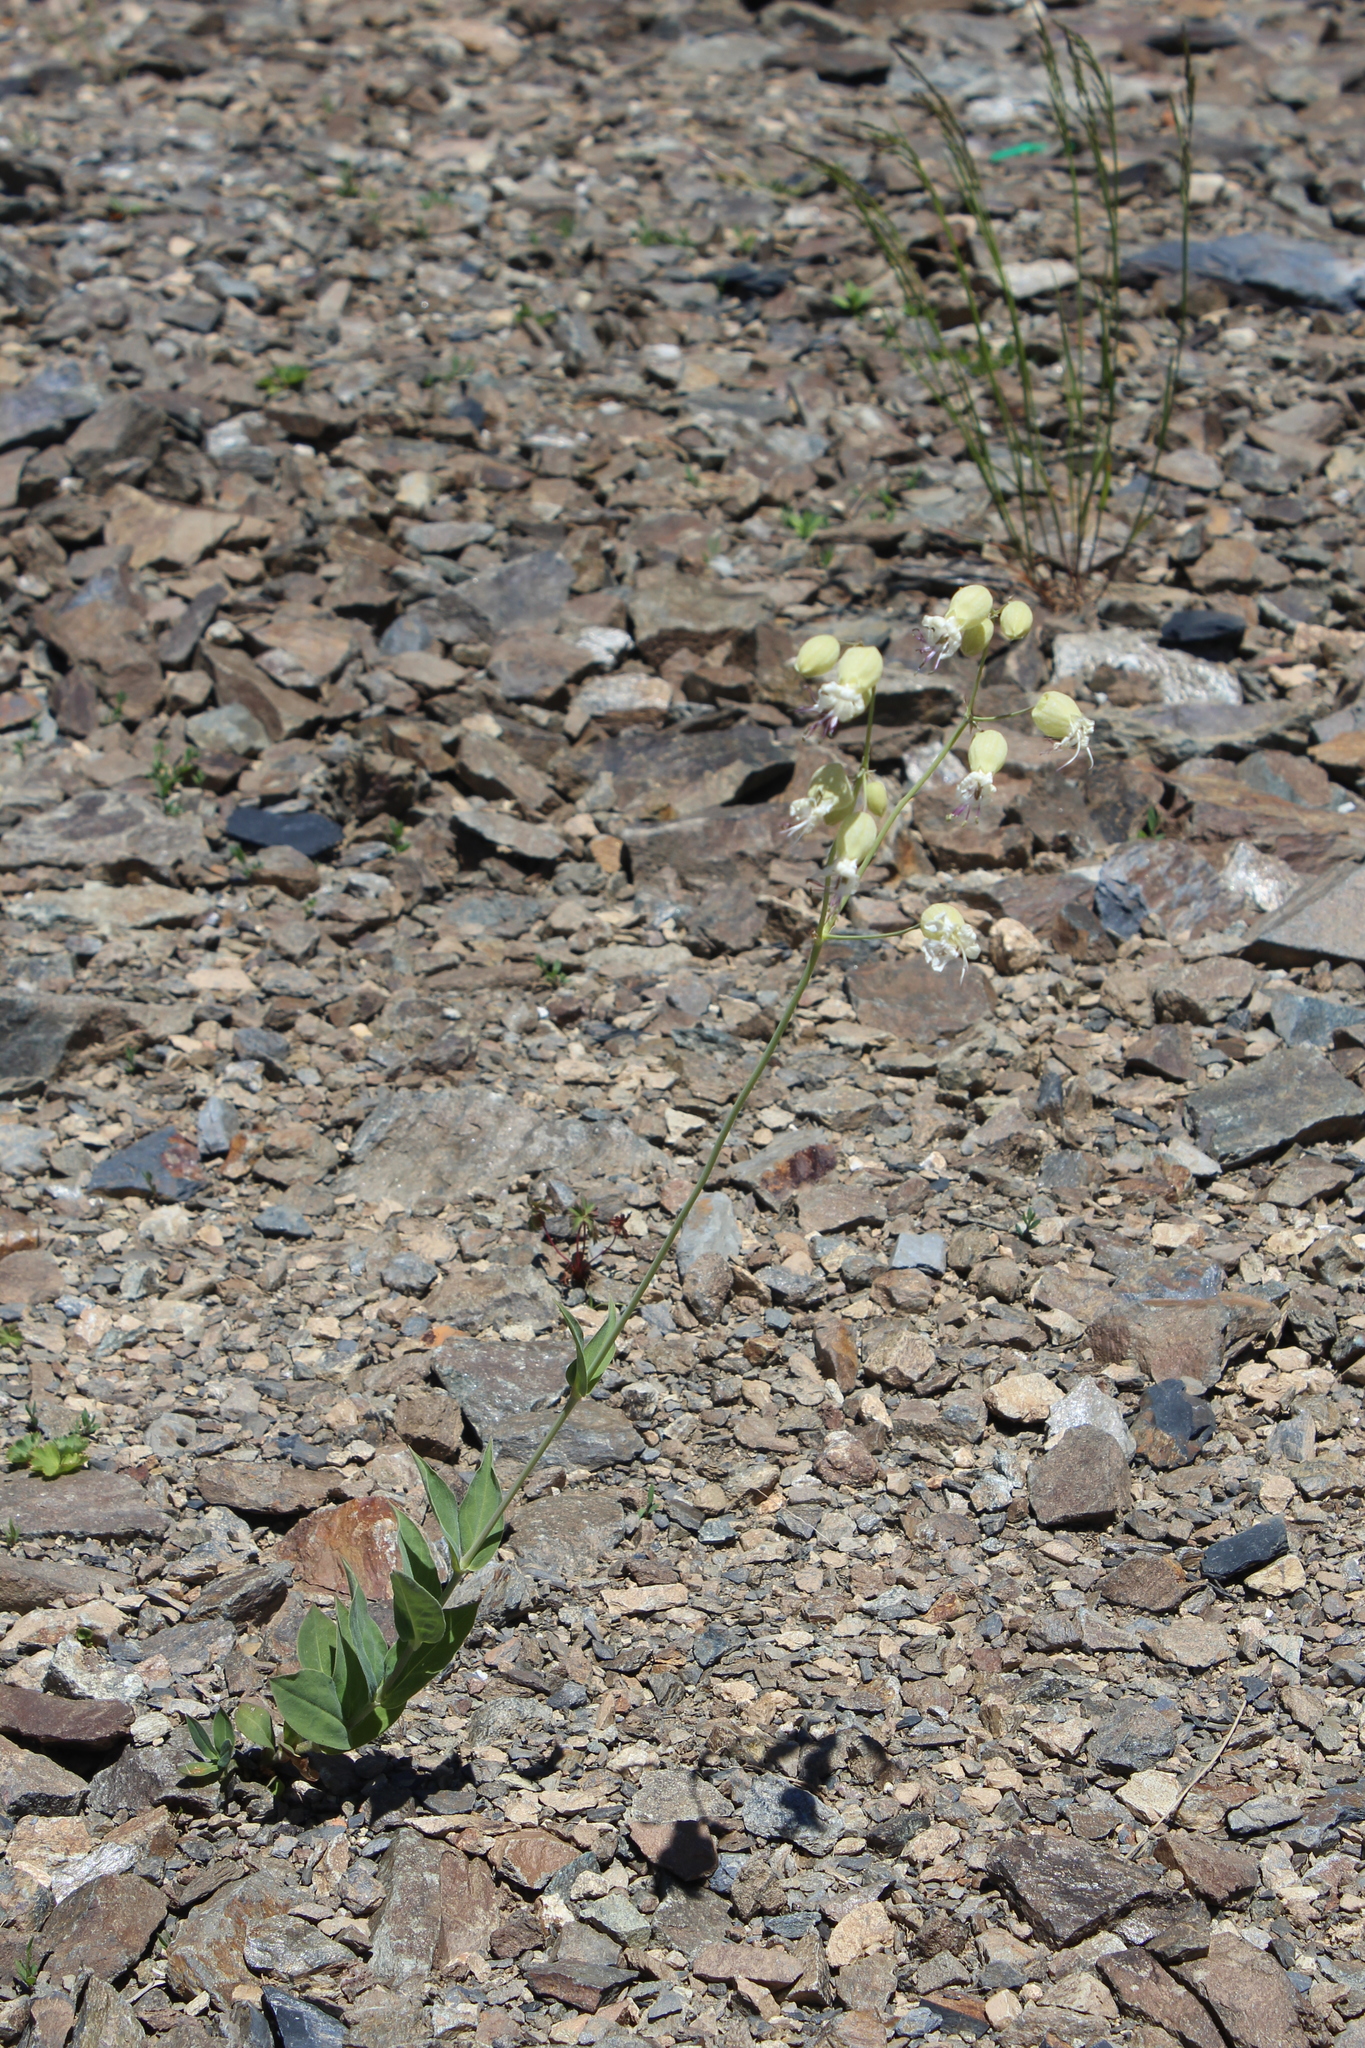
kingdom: Plantae
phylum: Tracheophyta
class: Magnoliopsida
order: Caryophyllales
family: Caryophyllaceae
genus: Silene
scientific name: Silene vulgaris
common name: Bladder campion
